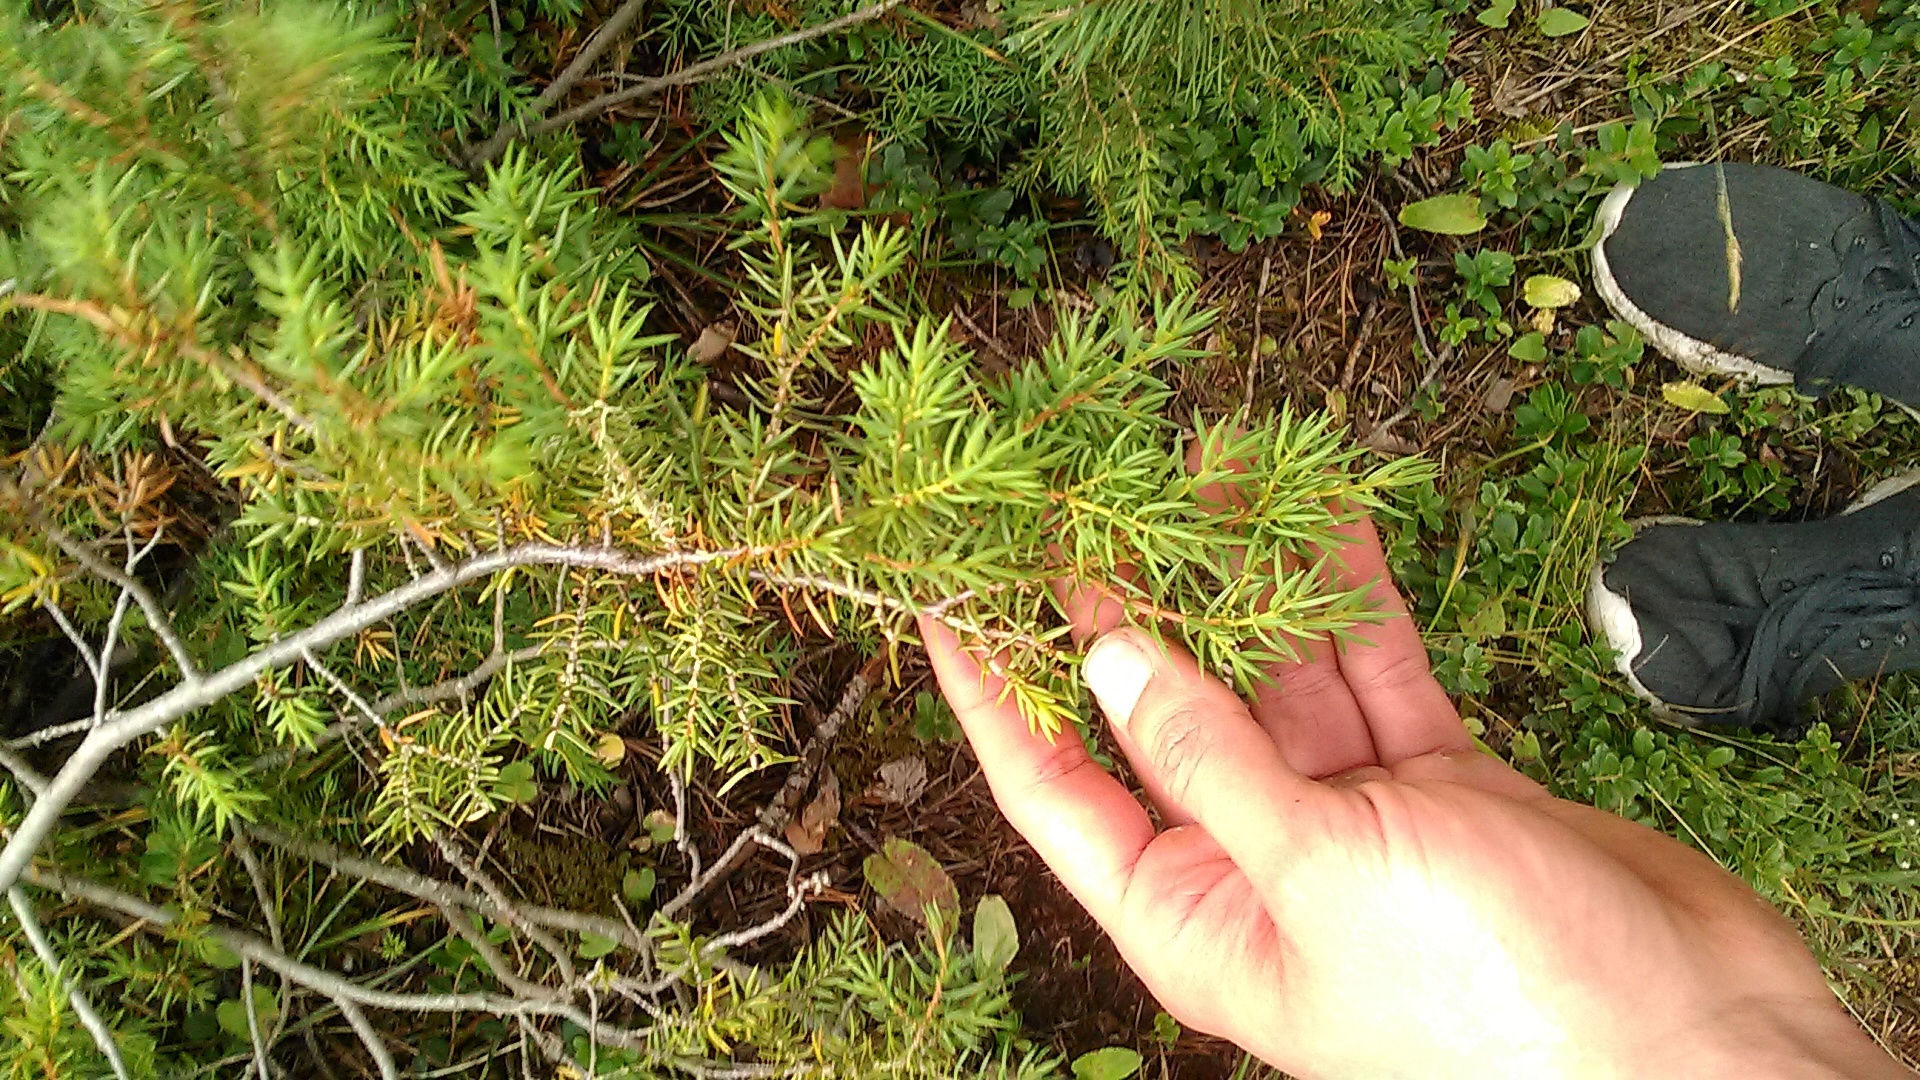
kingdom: Plantae
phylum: Tracheophyta
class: Pinopsida
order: Pinales
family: Cupressaceae
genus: Juniperus
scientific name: Juniperus communis
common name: Common juniper
